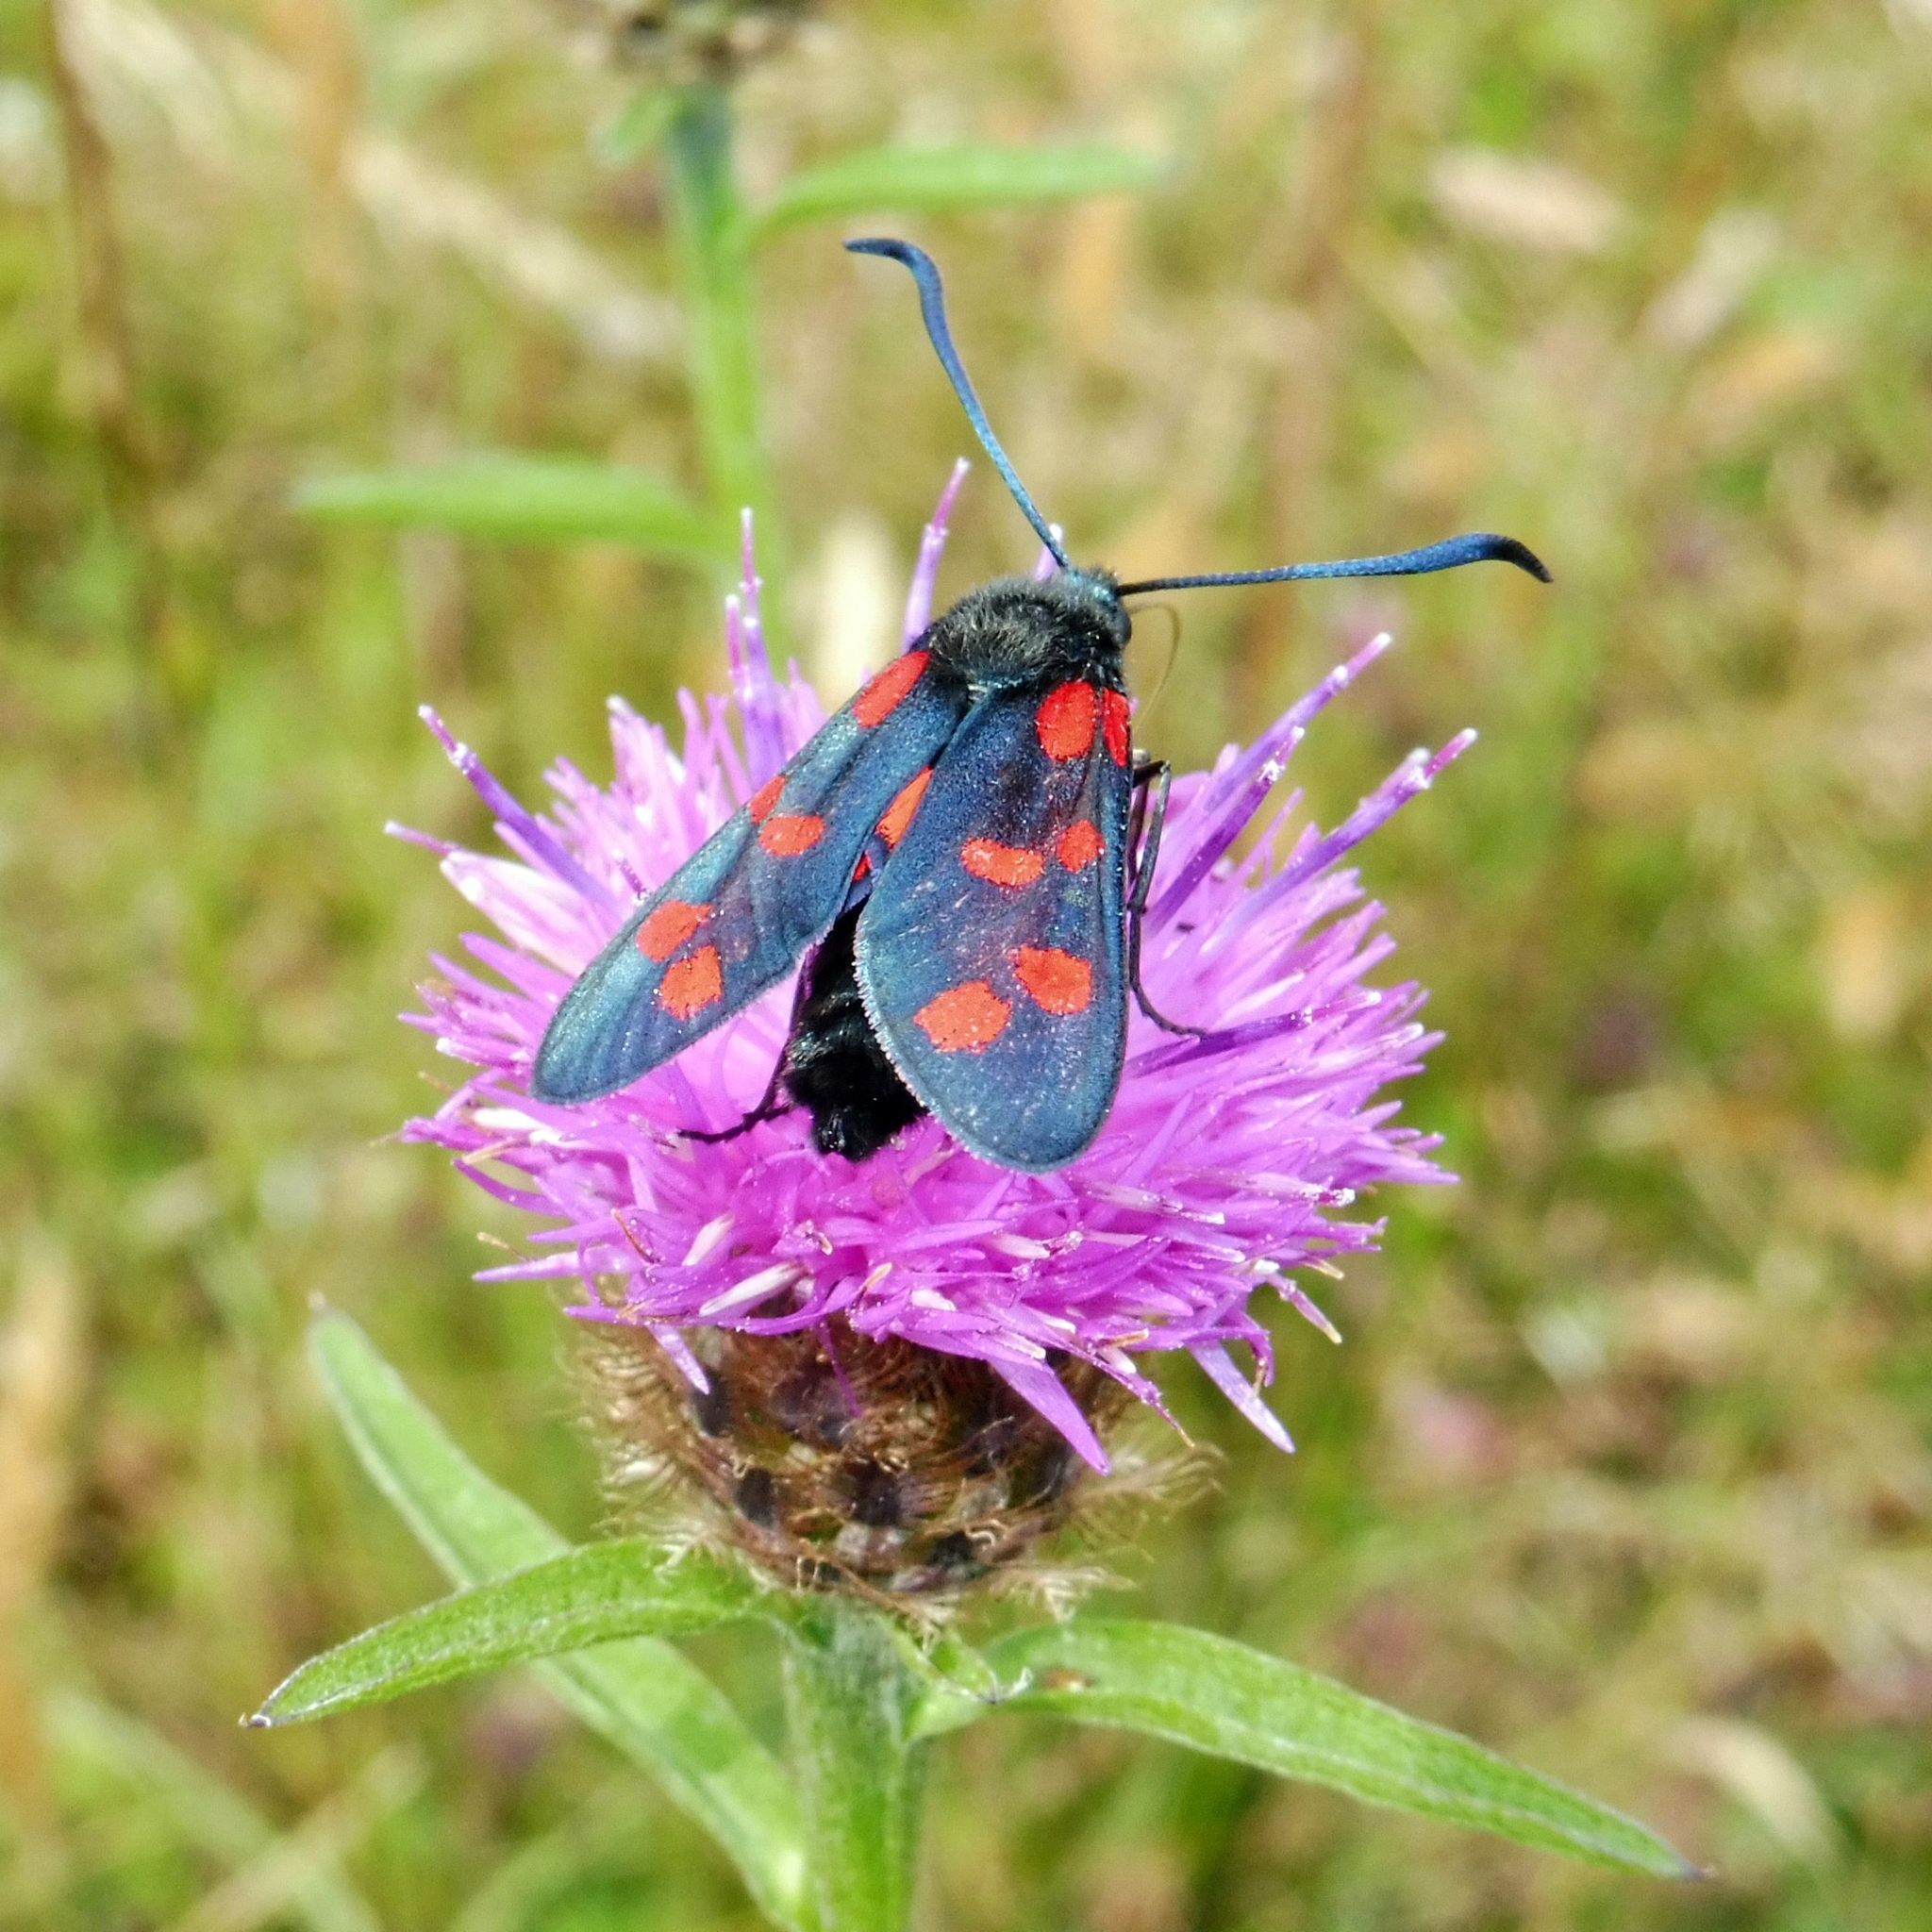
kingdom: Animalia
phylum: Arthropoda
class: Insecta
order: Lepidoptera
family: Zygaenidae
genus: Zygaena
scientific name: Zygaena filipendulae
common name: Six-spot burnet
